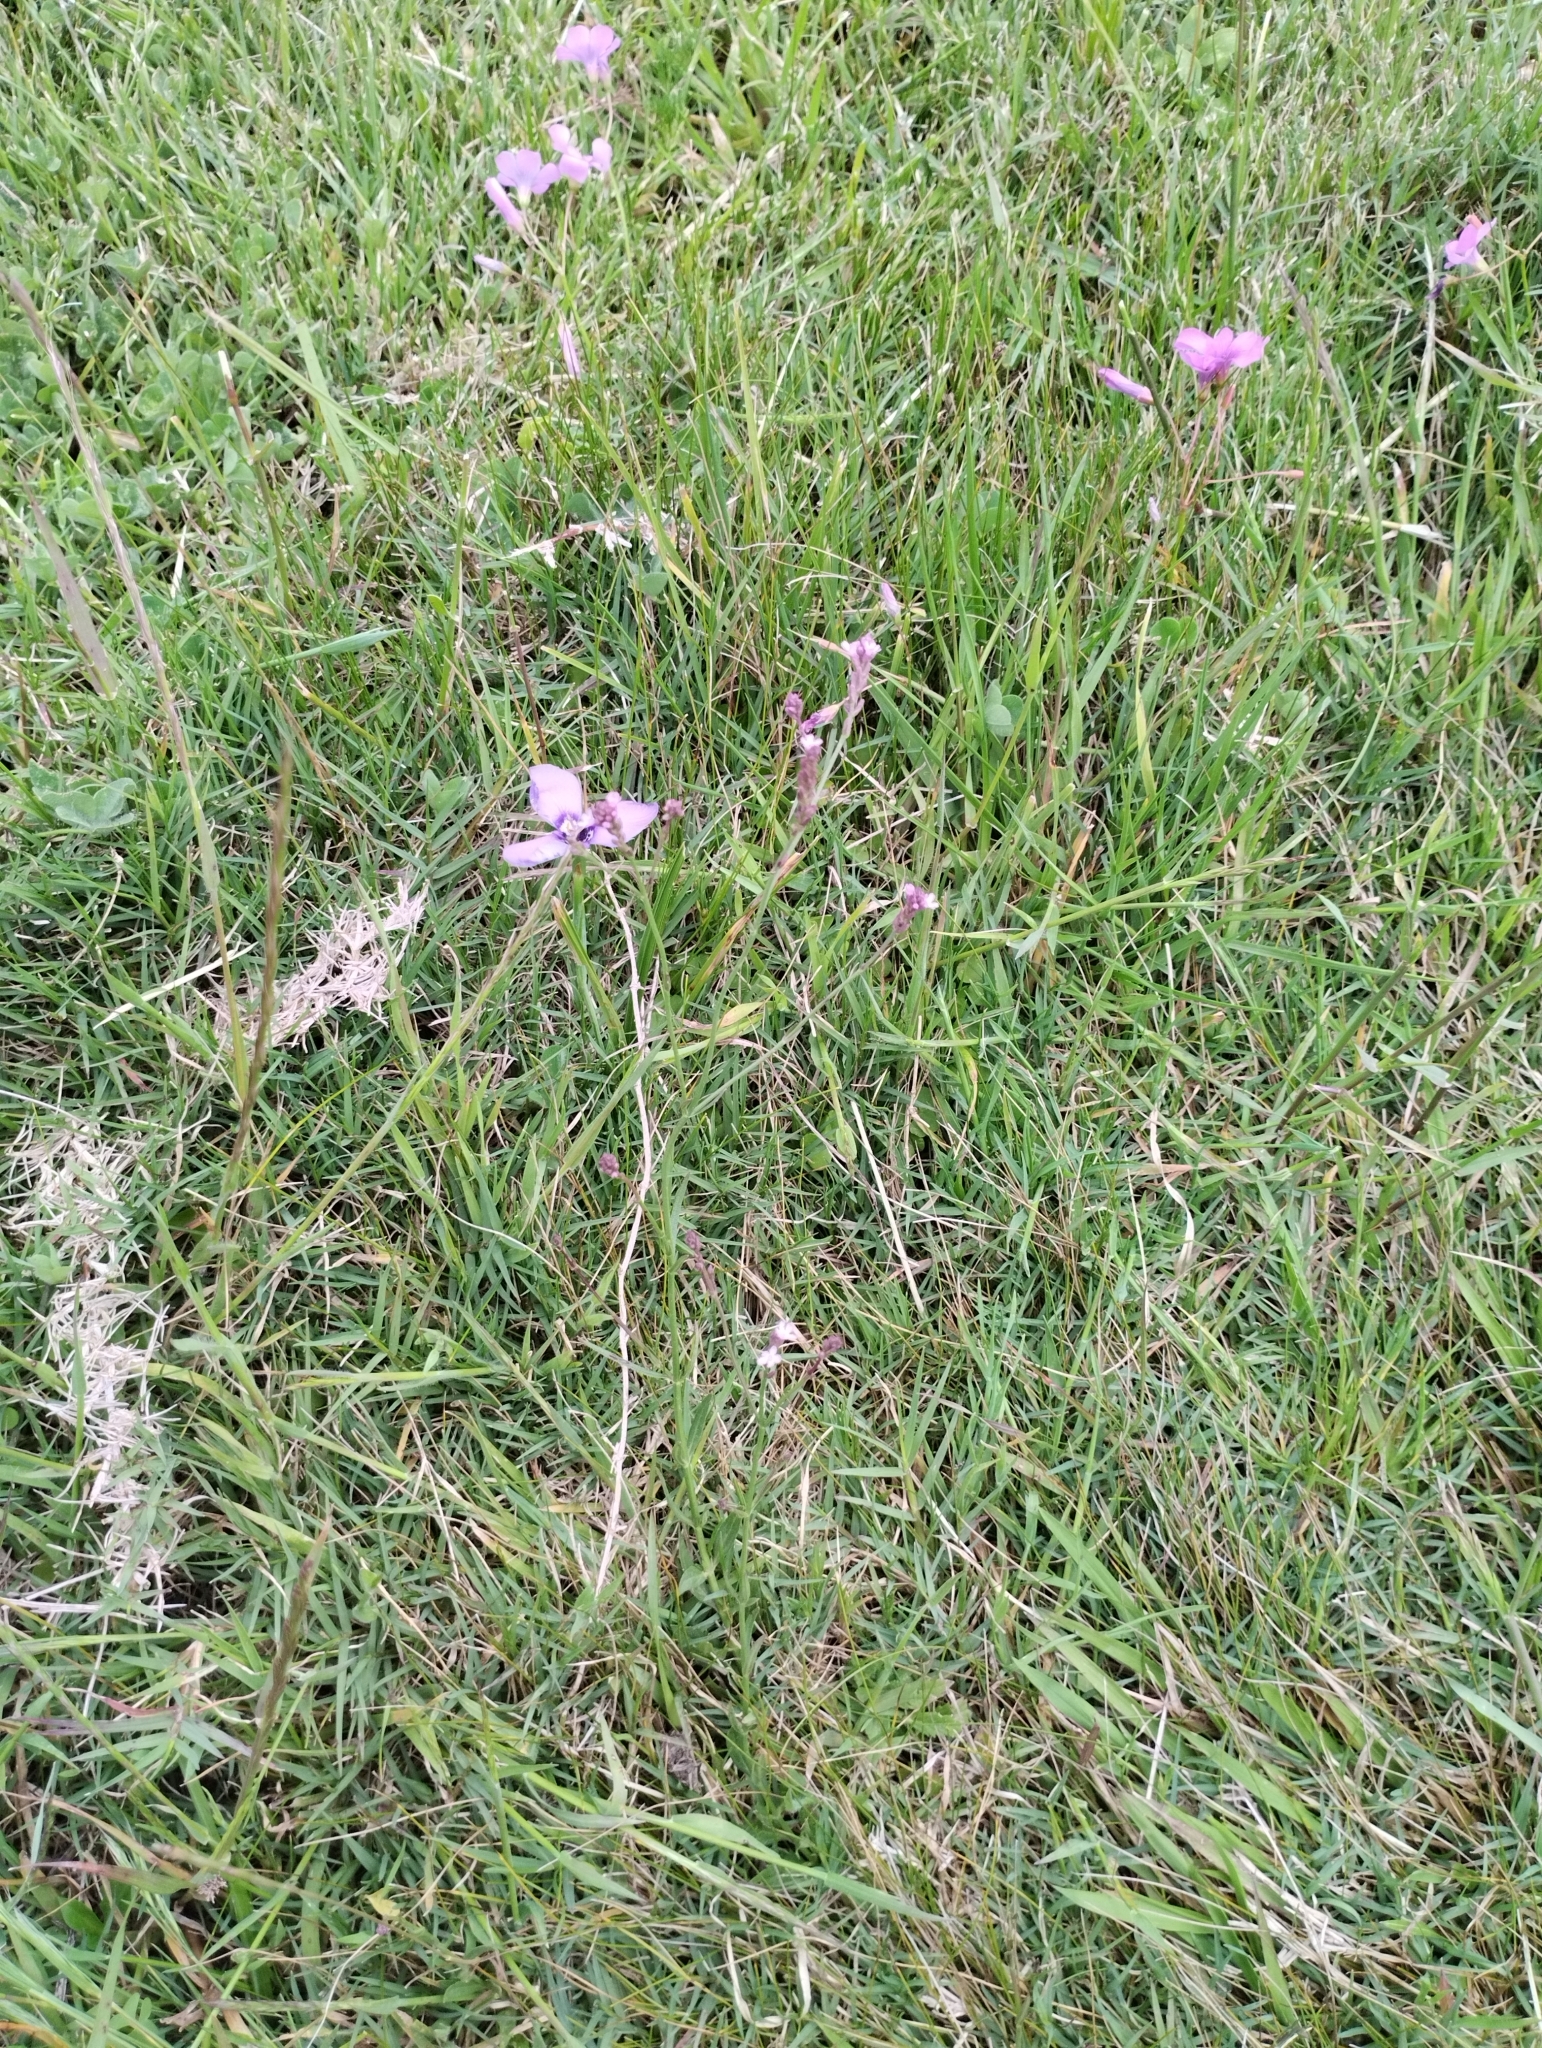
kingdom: Plantae
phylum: Tracheophyta
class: Magnoliopsida
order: Lamiales
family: Verbenaceae
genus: Verbena
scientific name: Verbena montevidensis
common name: Uruguayan vervain
